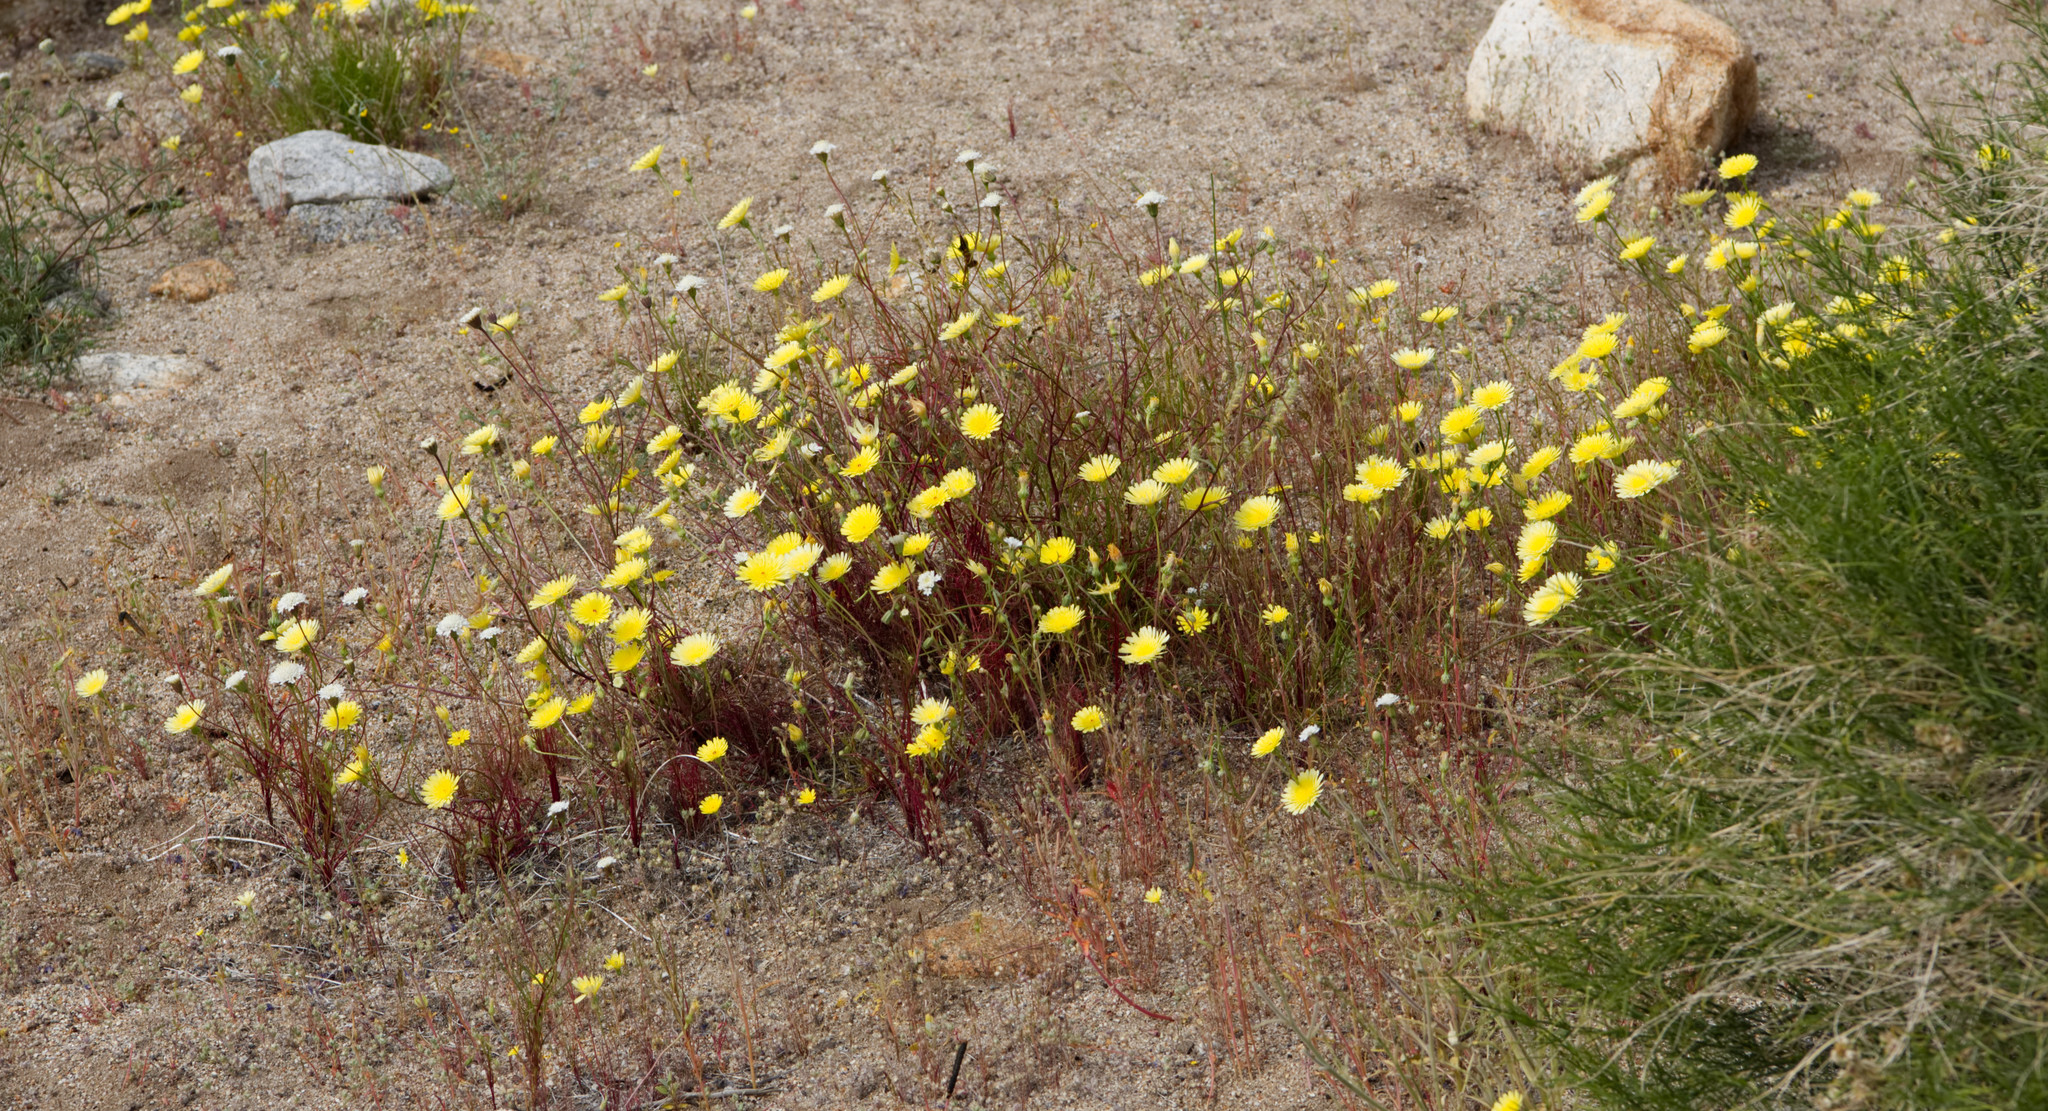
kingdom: Plantae
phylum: Tracheophyta
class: Magnoliopsida
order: Asterales
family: Asteraceae
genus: Malacothrix
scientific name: Malacothrix glabrata
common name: Smooth desert-dandelion
